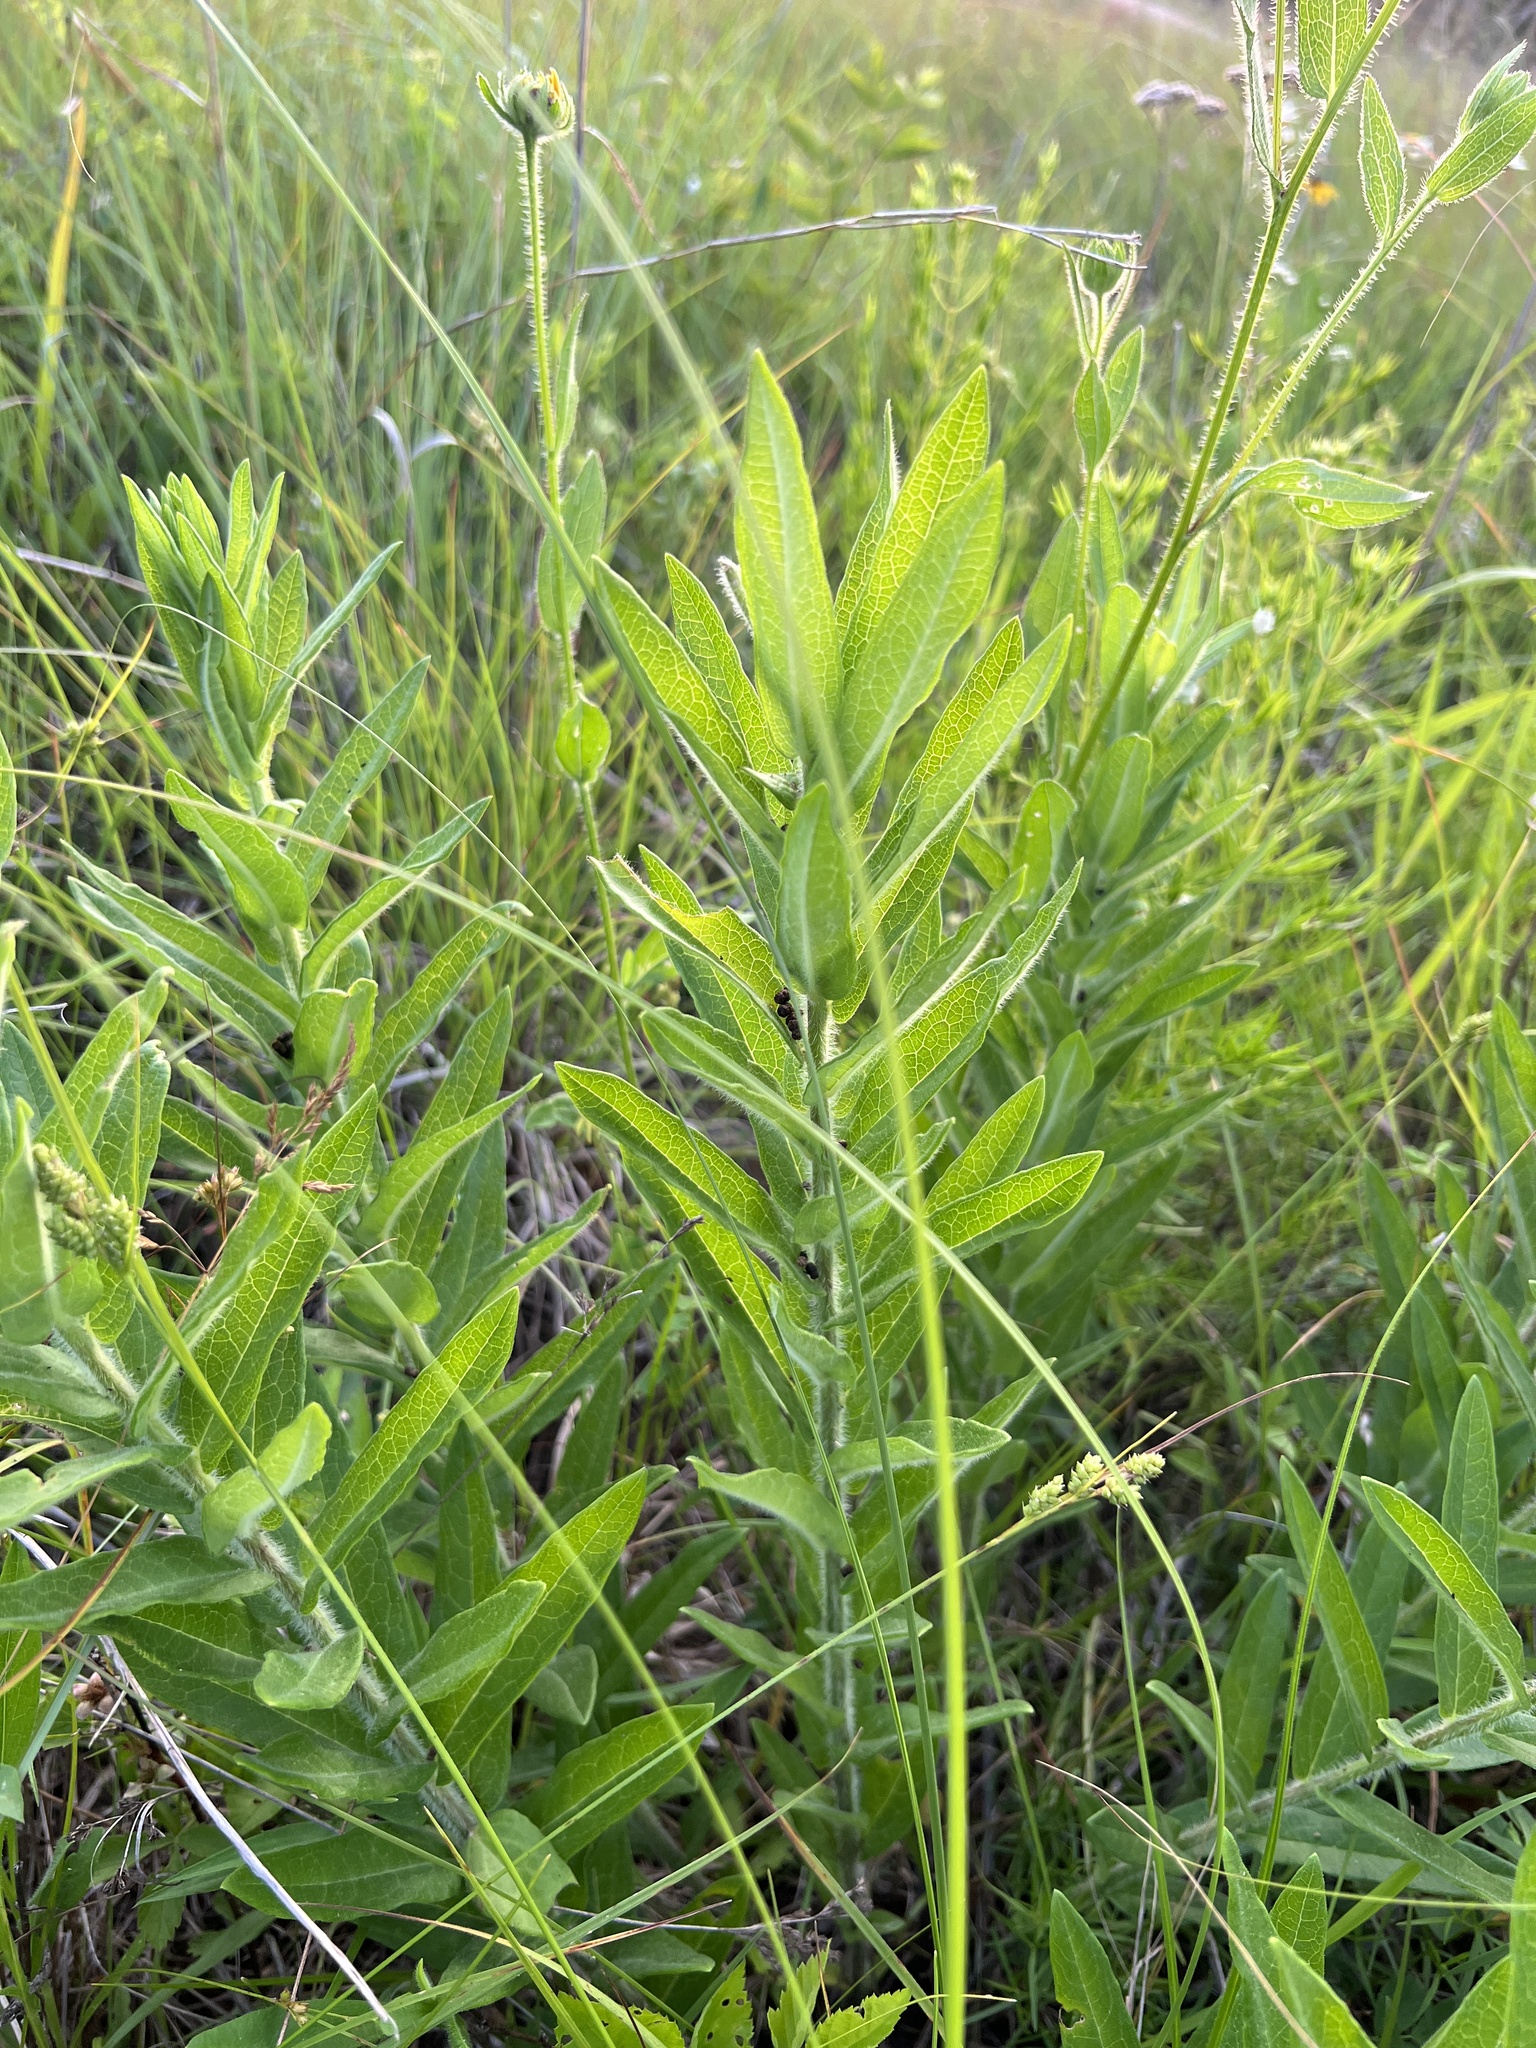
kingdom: Plantae
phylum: Tracheophyta
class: Magnoliopsida
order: Gentianales
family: Apocynaceae
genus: Asclepias
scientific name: Asclepias tuberosa
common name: Butterfly milkweed
